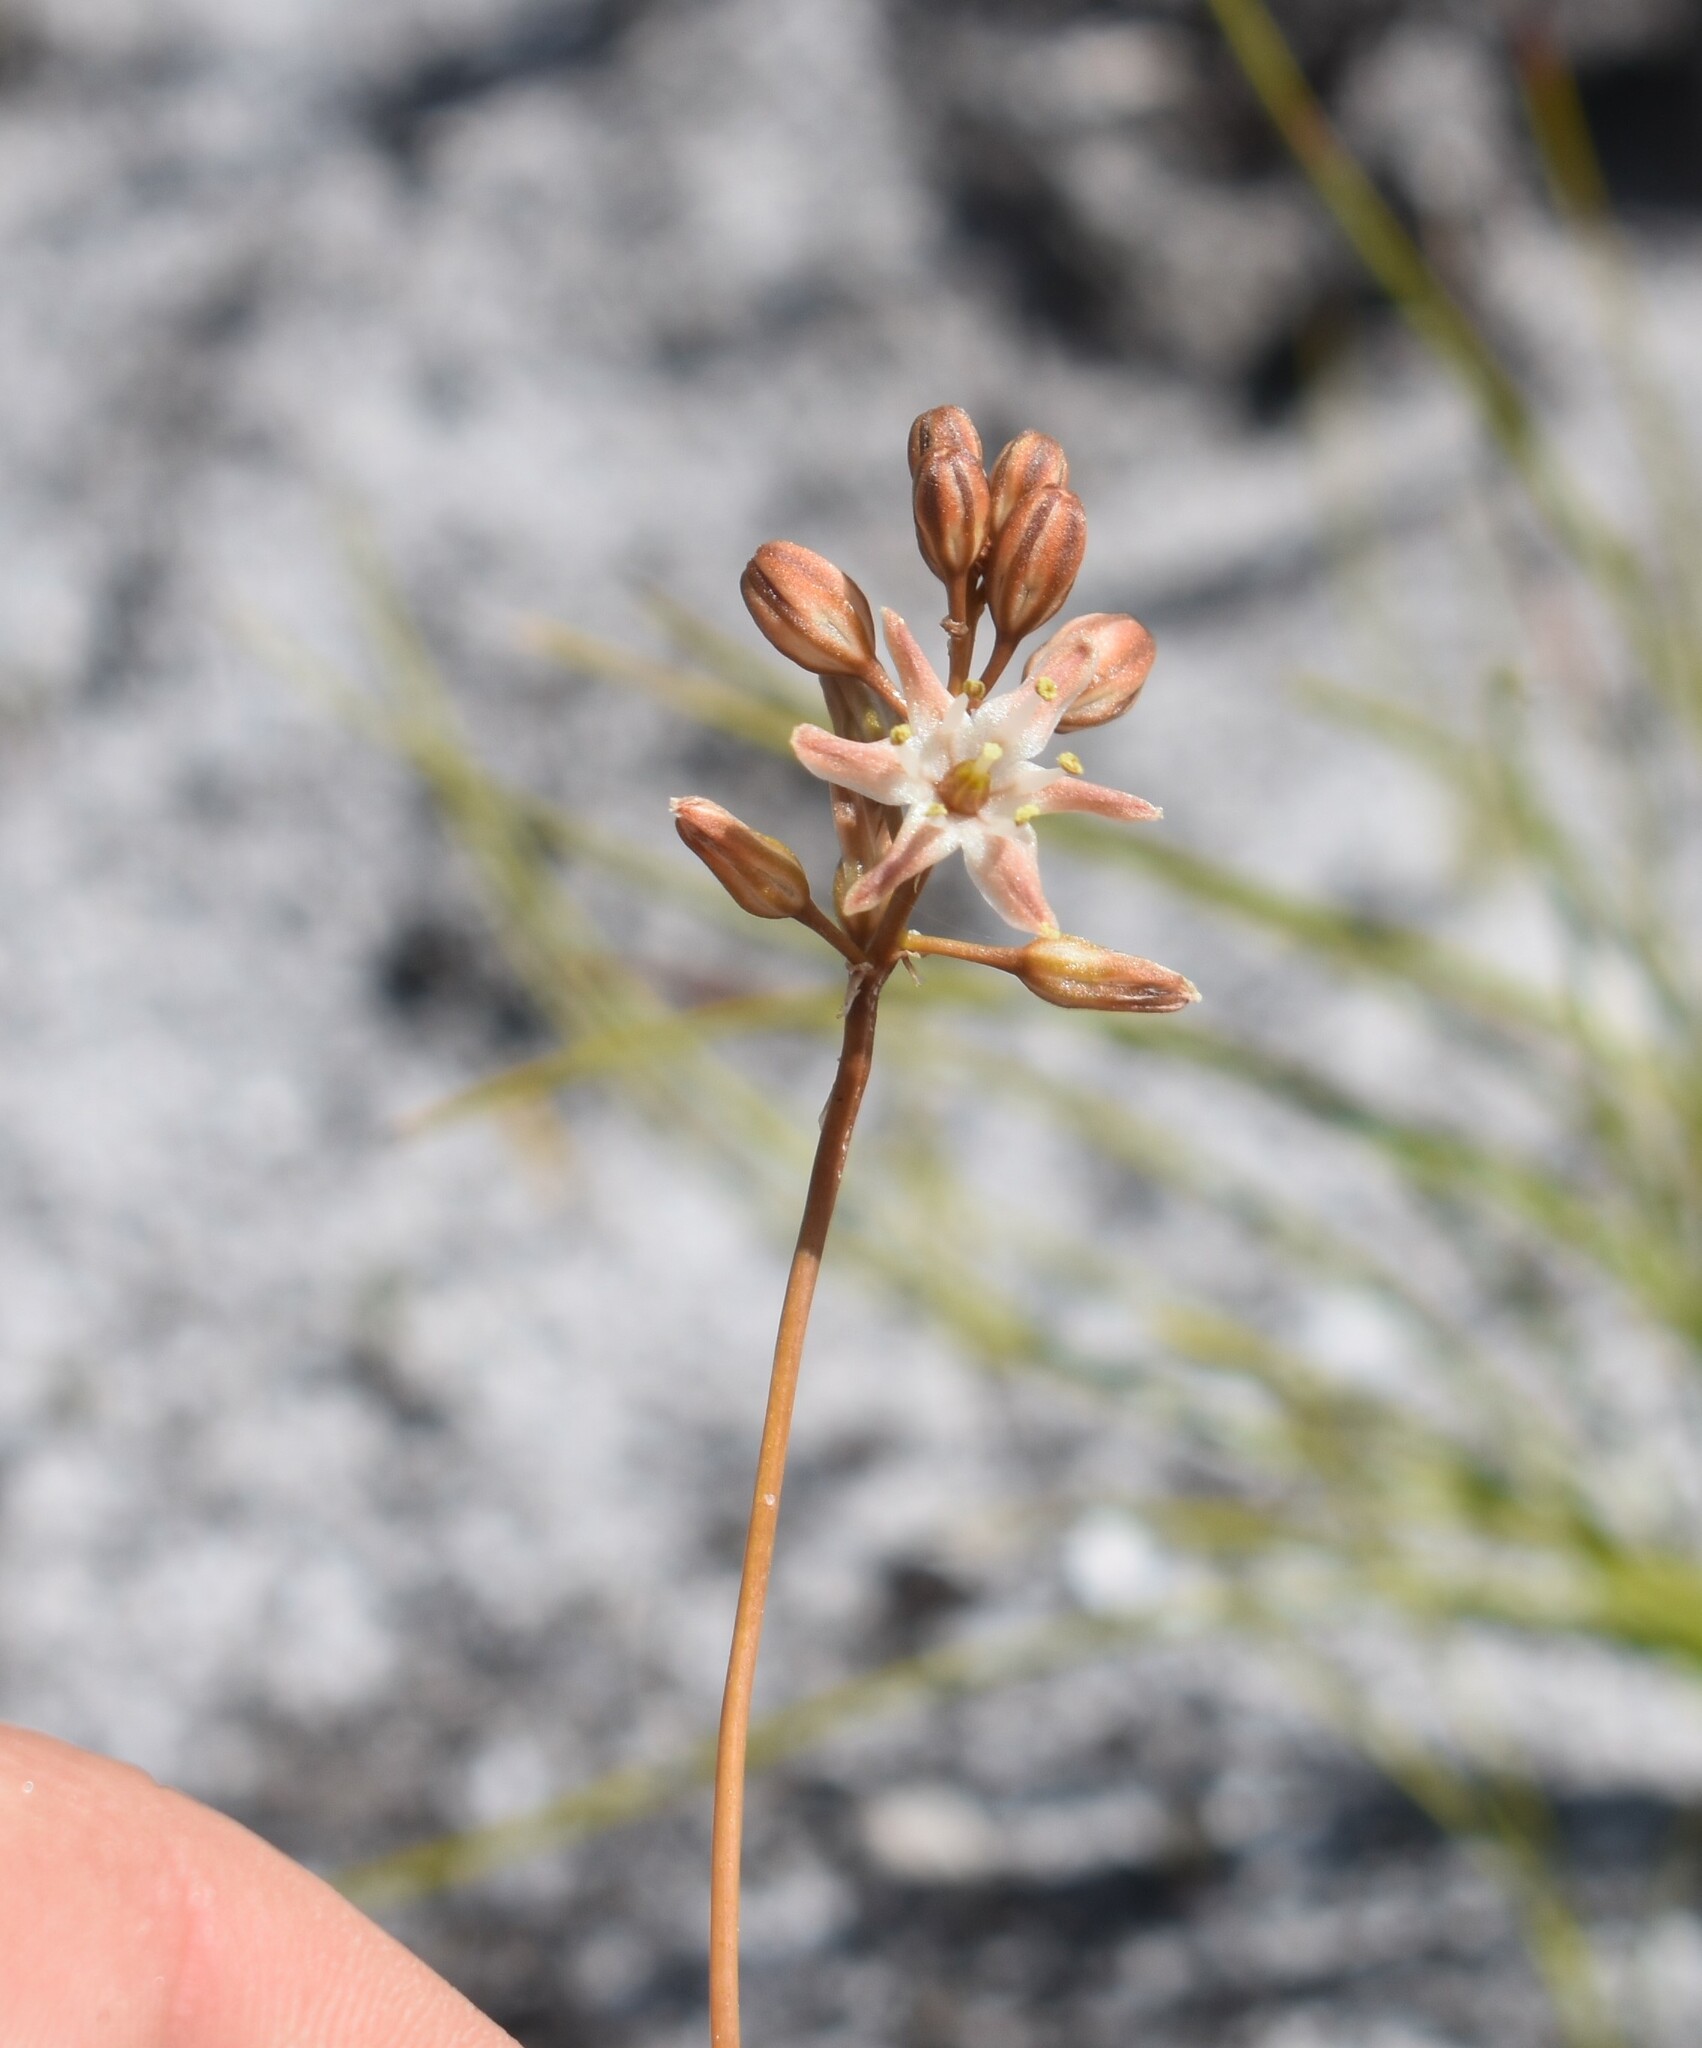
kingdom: Plantae
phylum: Tracheophyta
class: Liliopsida
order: Asparagales
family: Asparagaceae
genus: Drimia
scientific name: Drimia salteri
